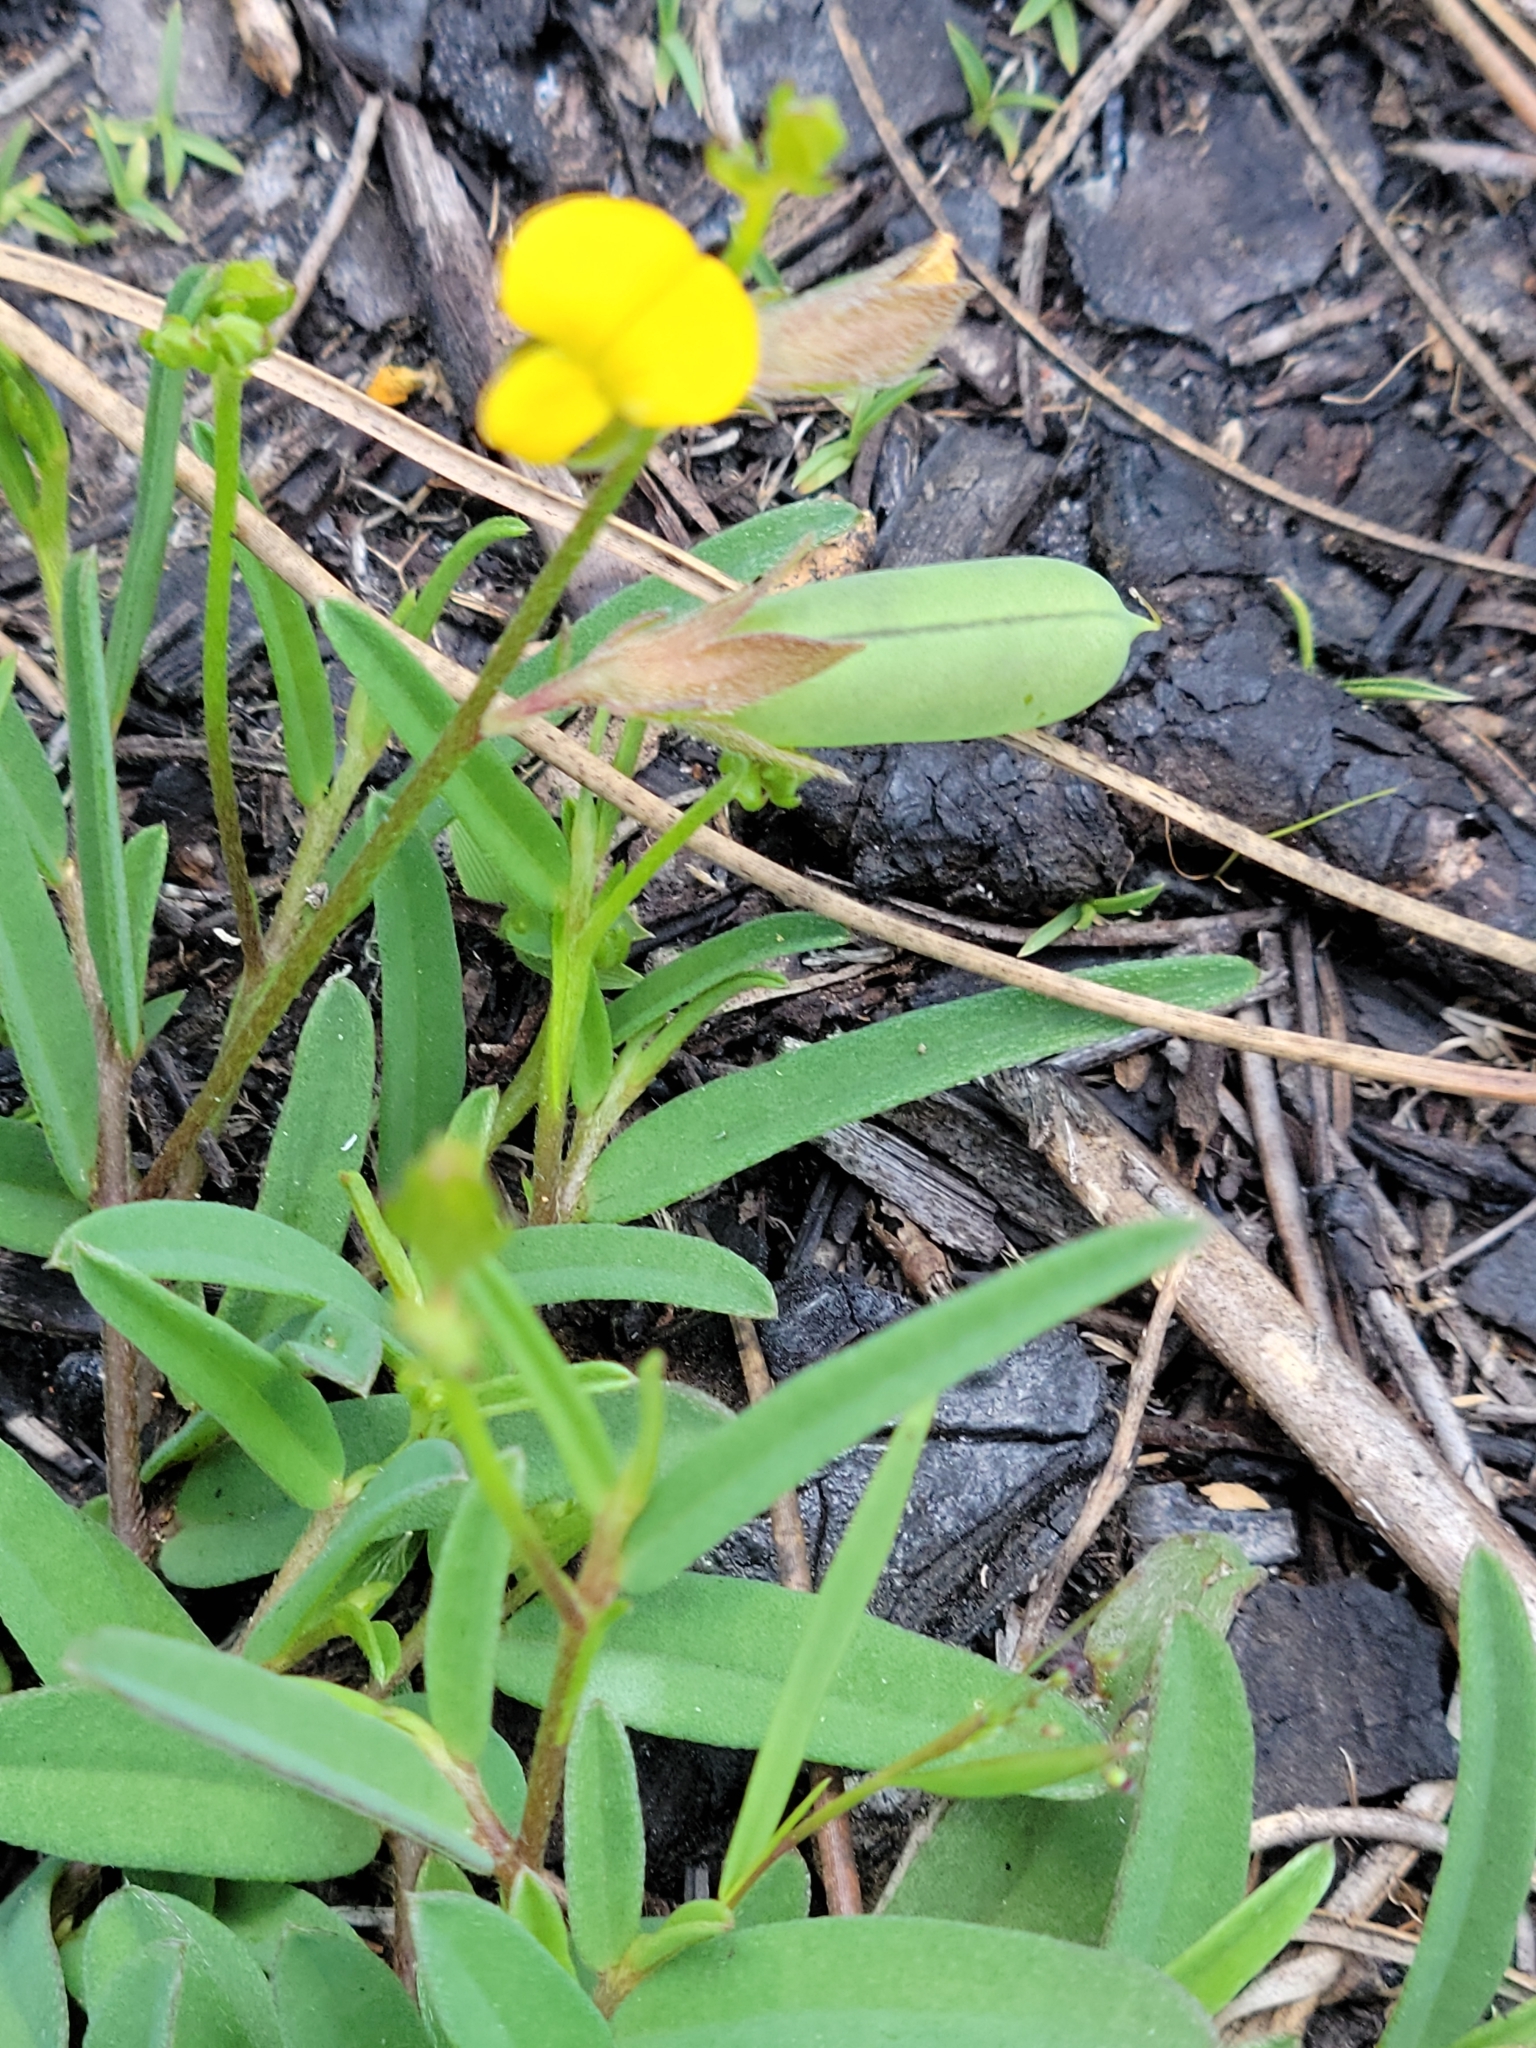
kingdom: Plantae
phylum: Tracheophyta
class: Magnoliopsida
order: Fabales
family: Fabaceae
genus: Crotalaria
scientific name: Crotalaria rotundifolia
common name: Prostrate rattlebox
